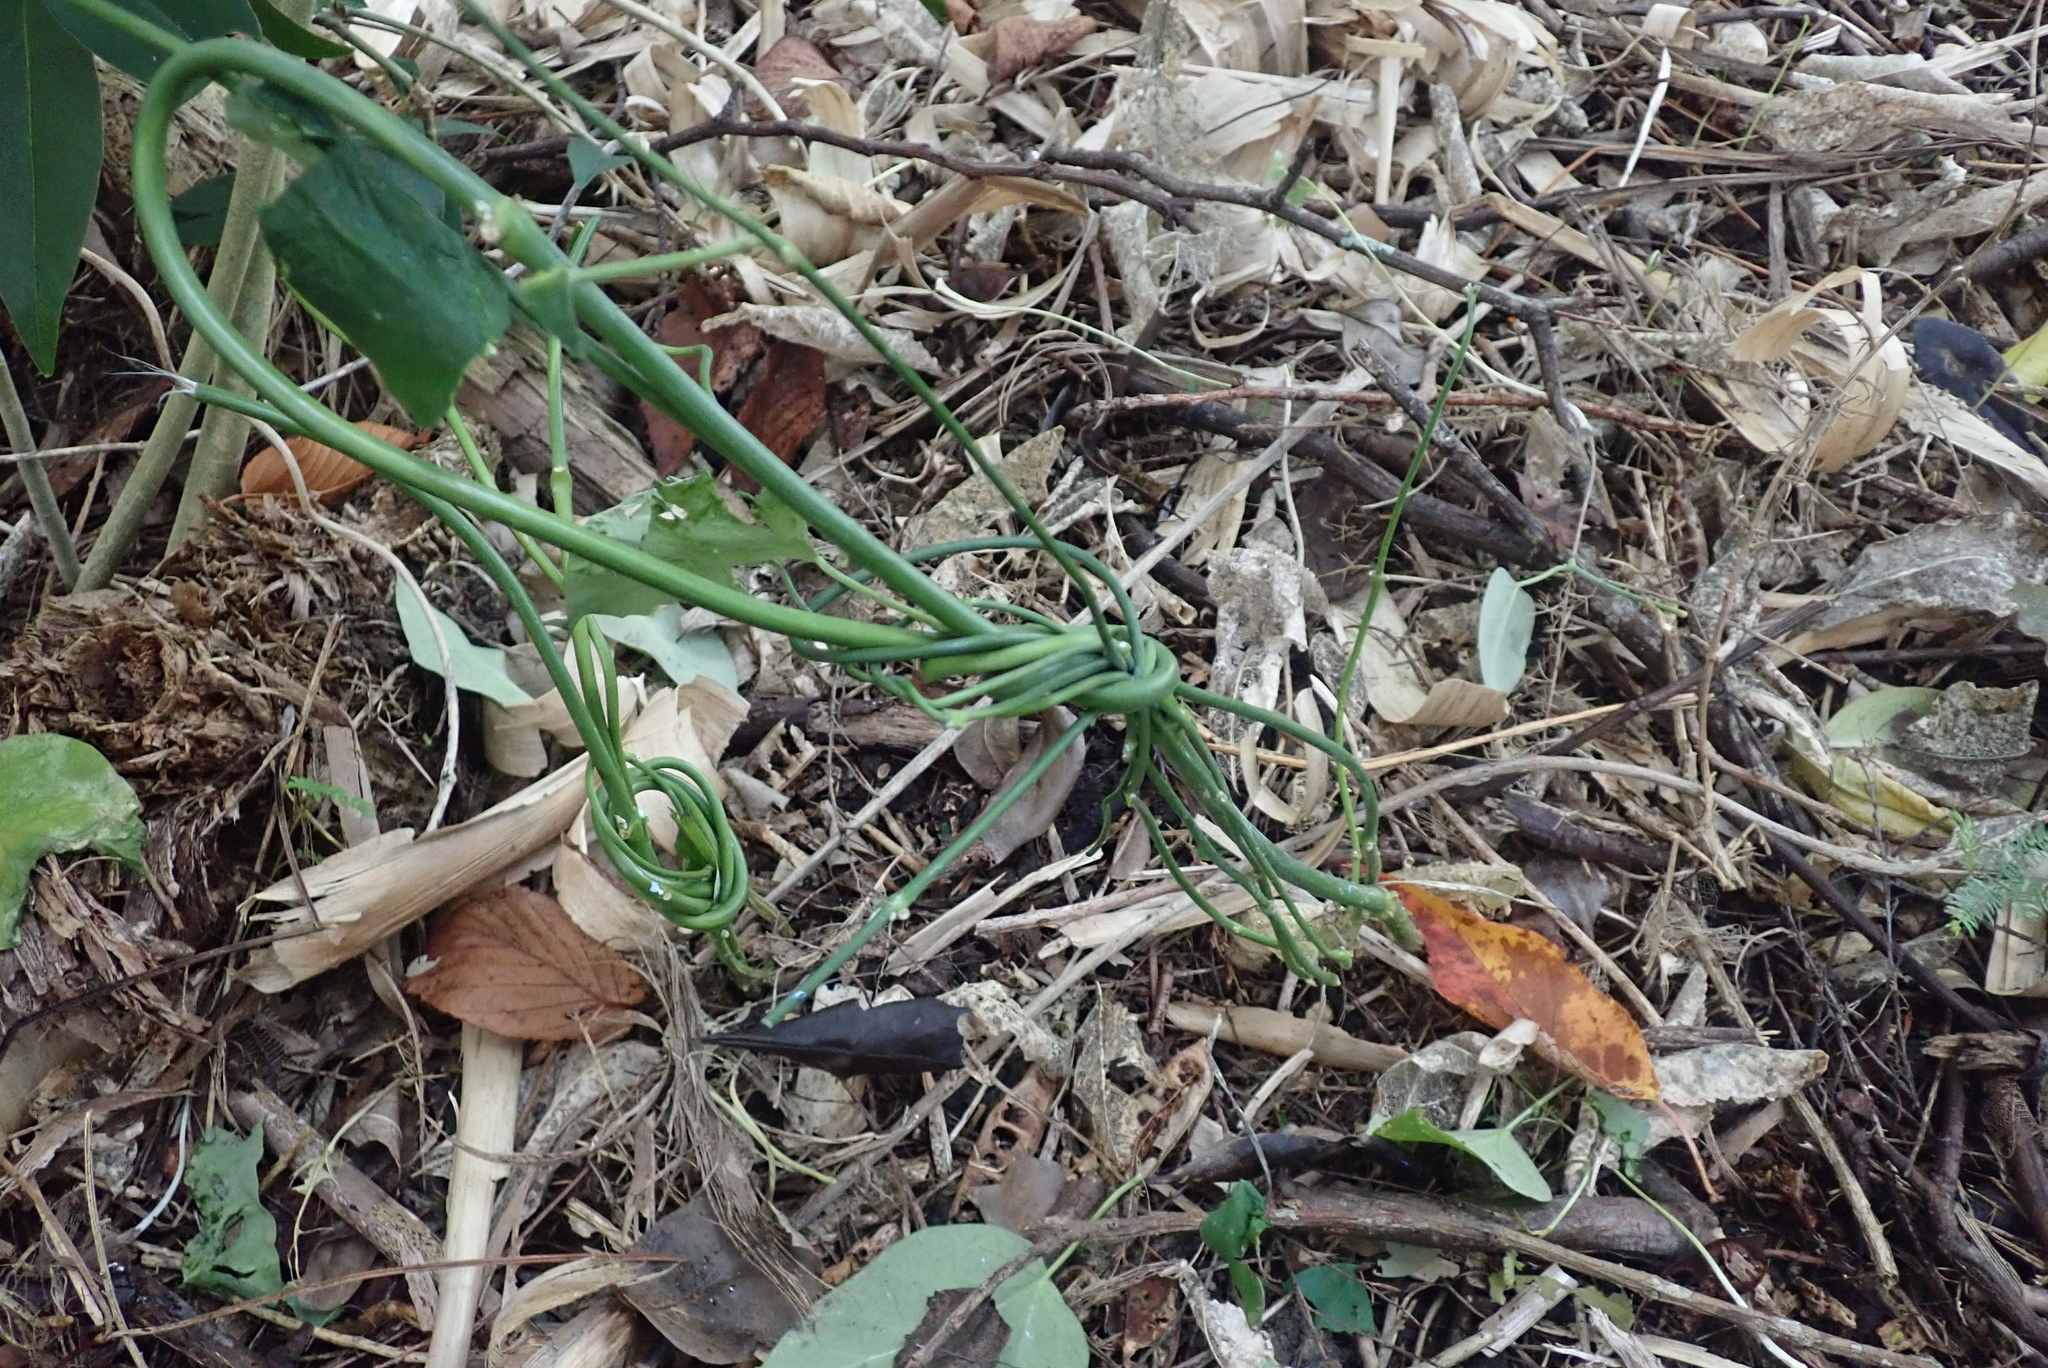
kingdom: Plantae
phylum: Tracheophyta
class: Magnoliopsida
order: Gentianales
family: Apocynaceae
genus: Araujia
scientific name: Araujia sericifera
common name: White bladderflower
